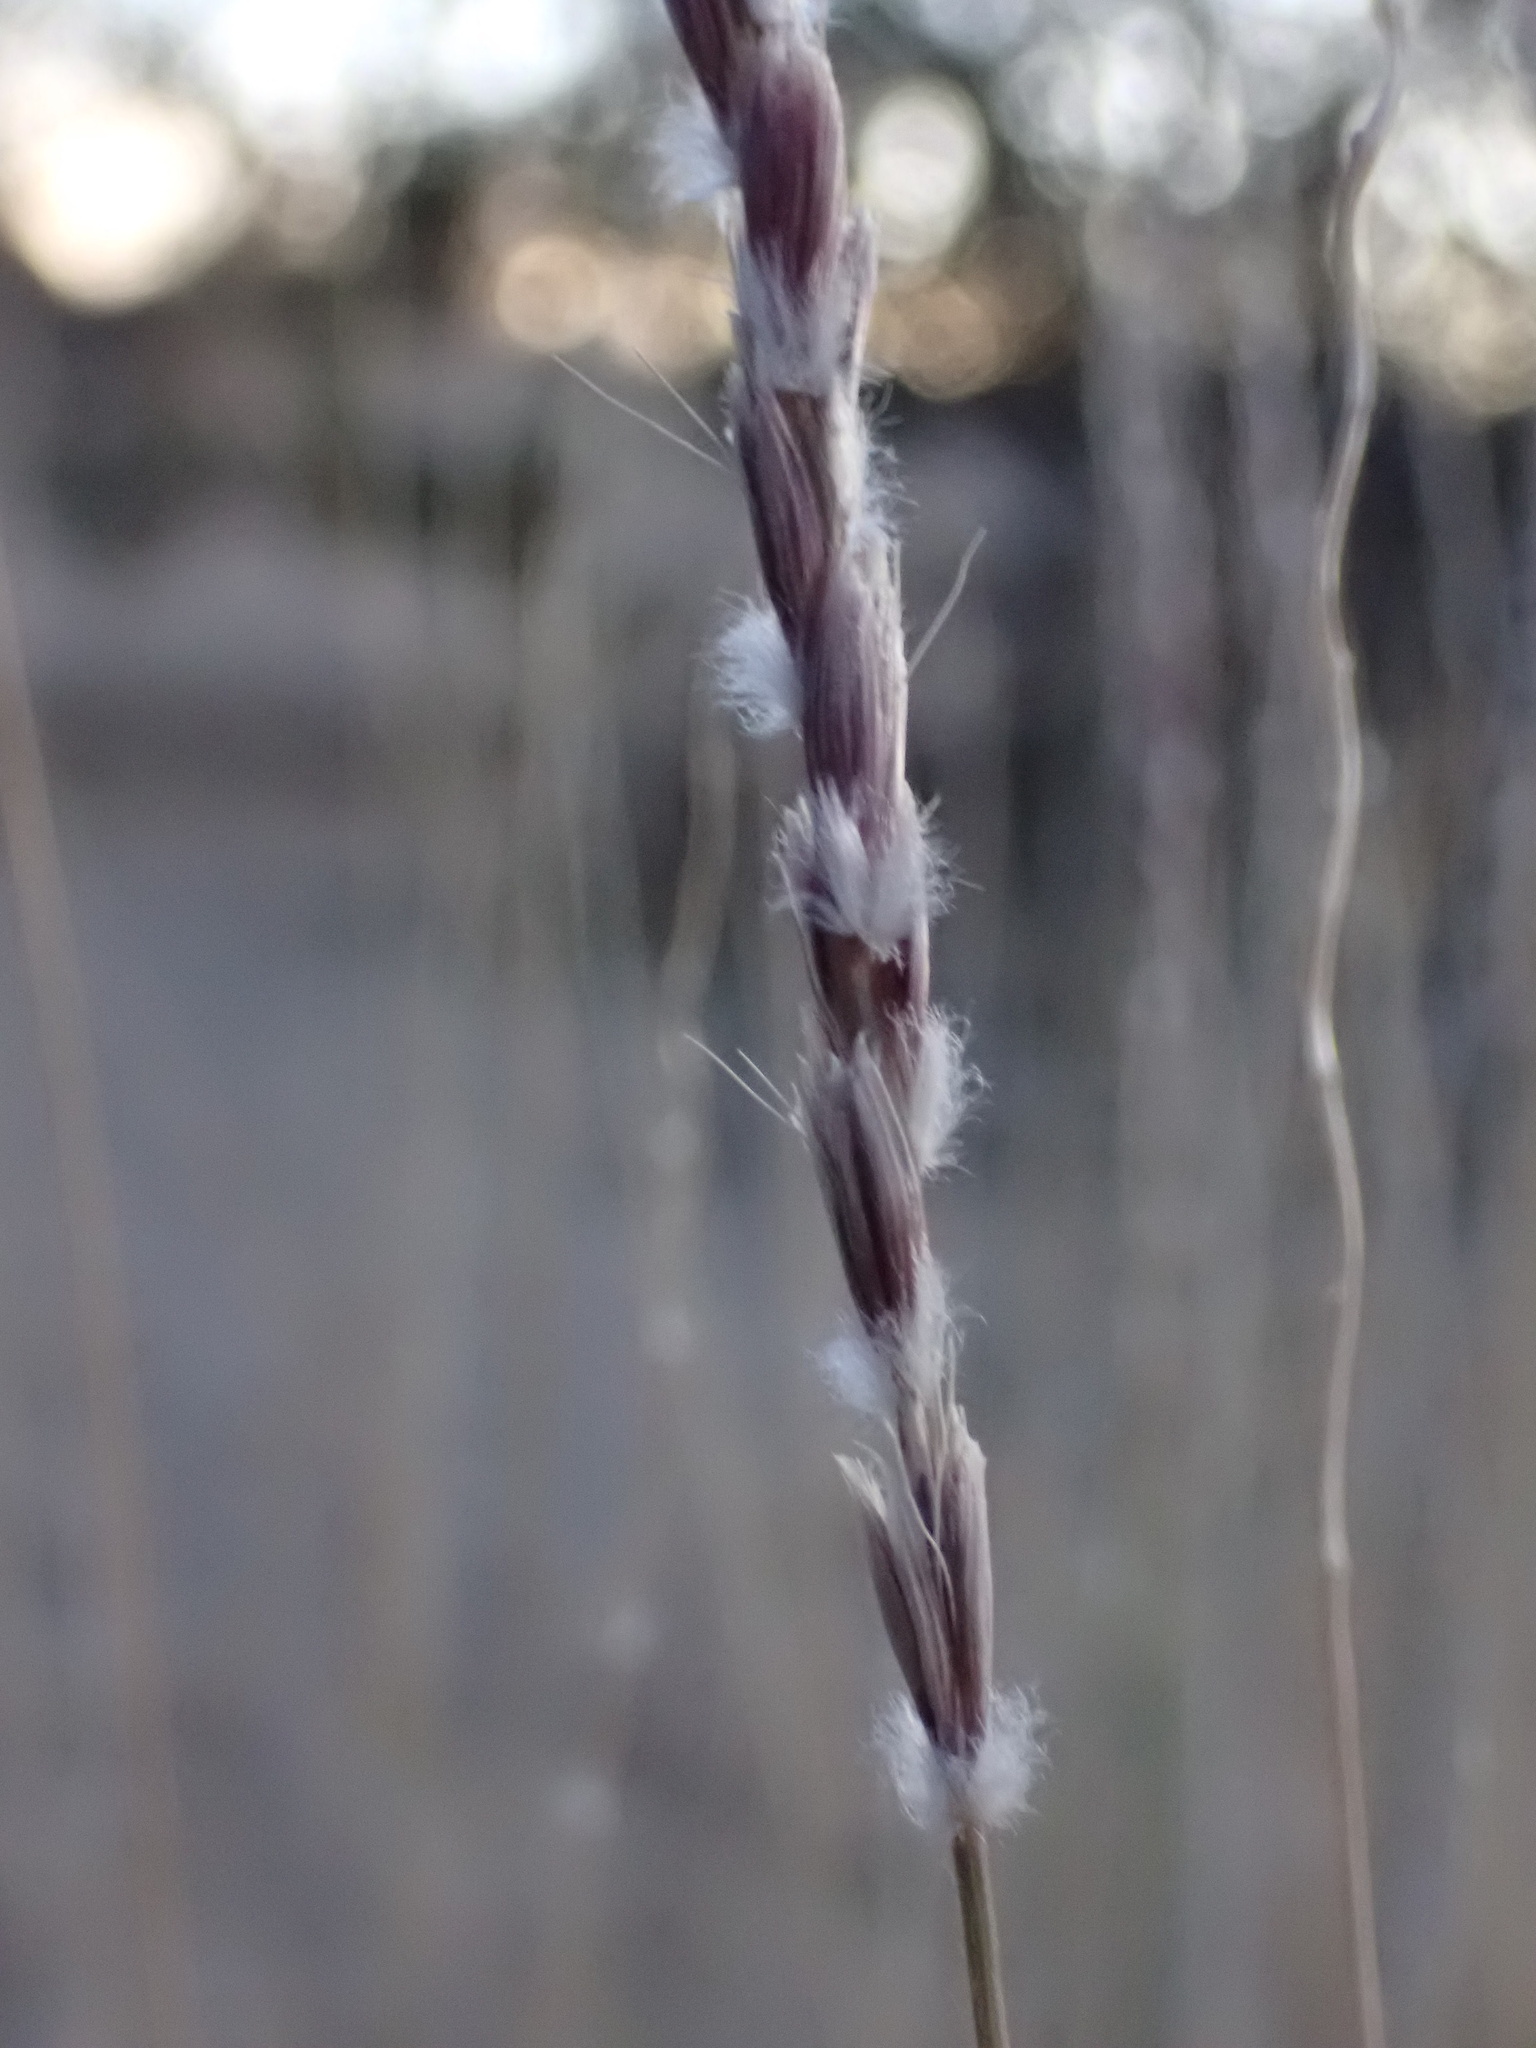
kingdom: Plantae
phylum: Tracheophyta
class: Liliopsida
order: Poales
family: Poaceae
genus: Hilaria
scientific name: Hilaria rigida
